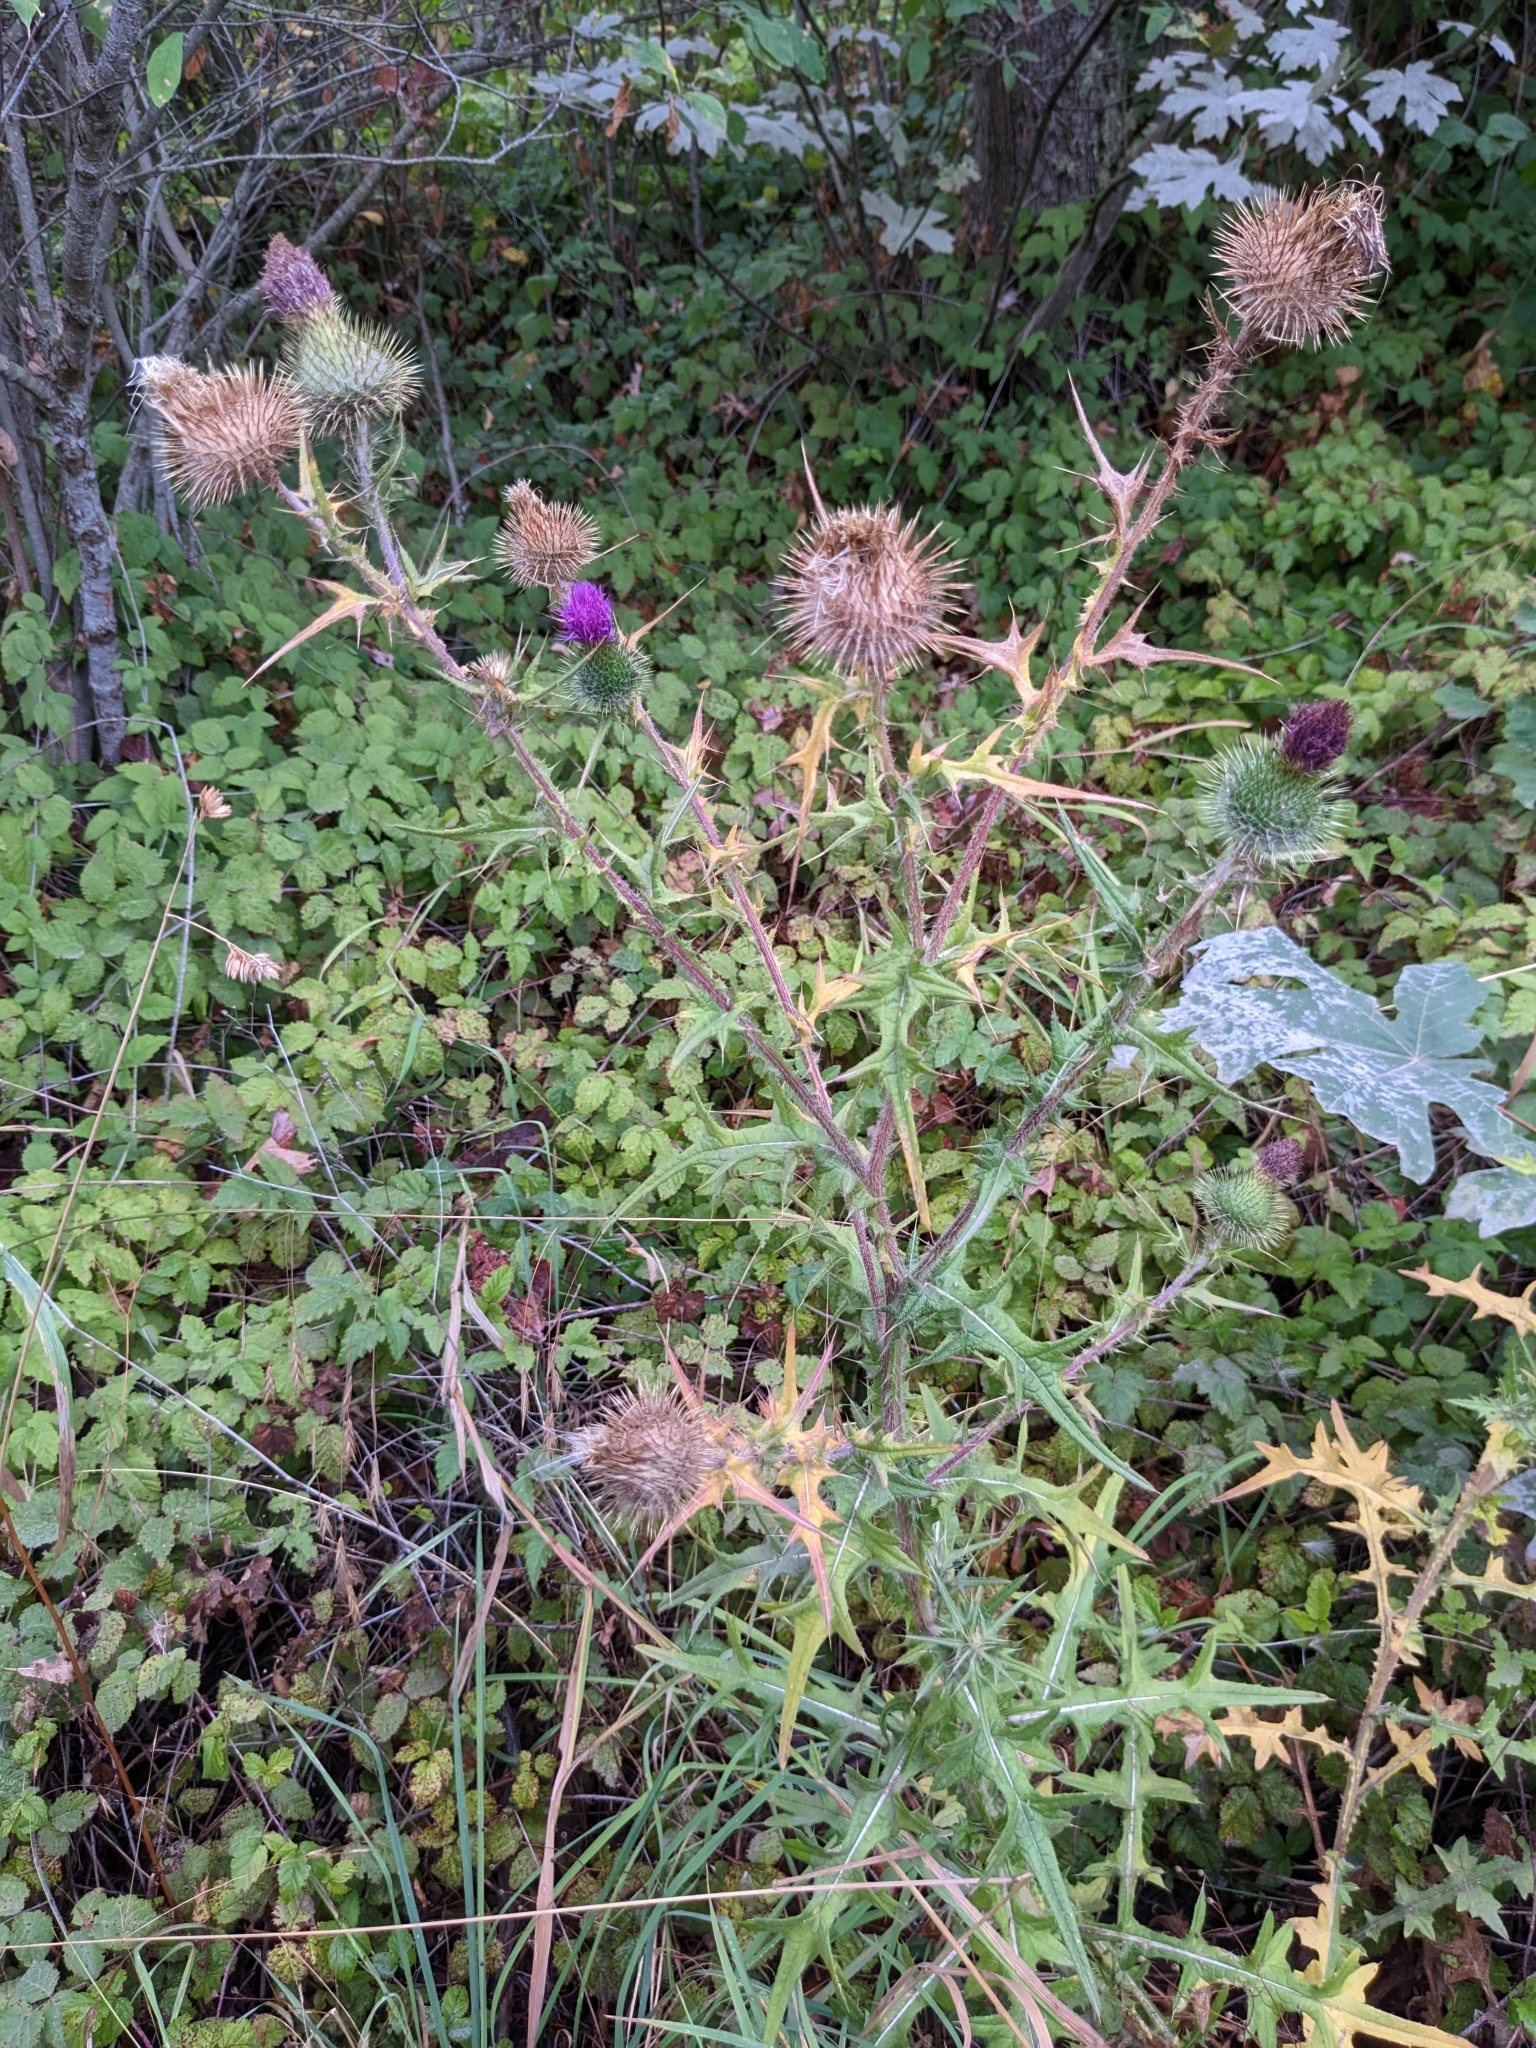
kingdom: Plantae
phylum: Tracheophyta
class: Magnoliopsida
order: Asterales
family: Asteraceae
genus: Cirsium
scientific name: Cirsium vulgare
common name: Bull thistle
